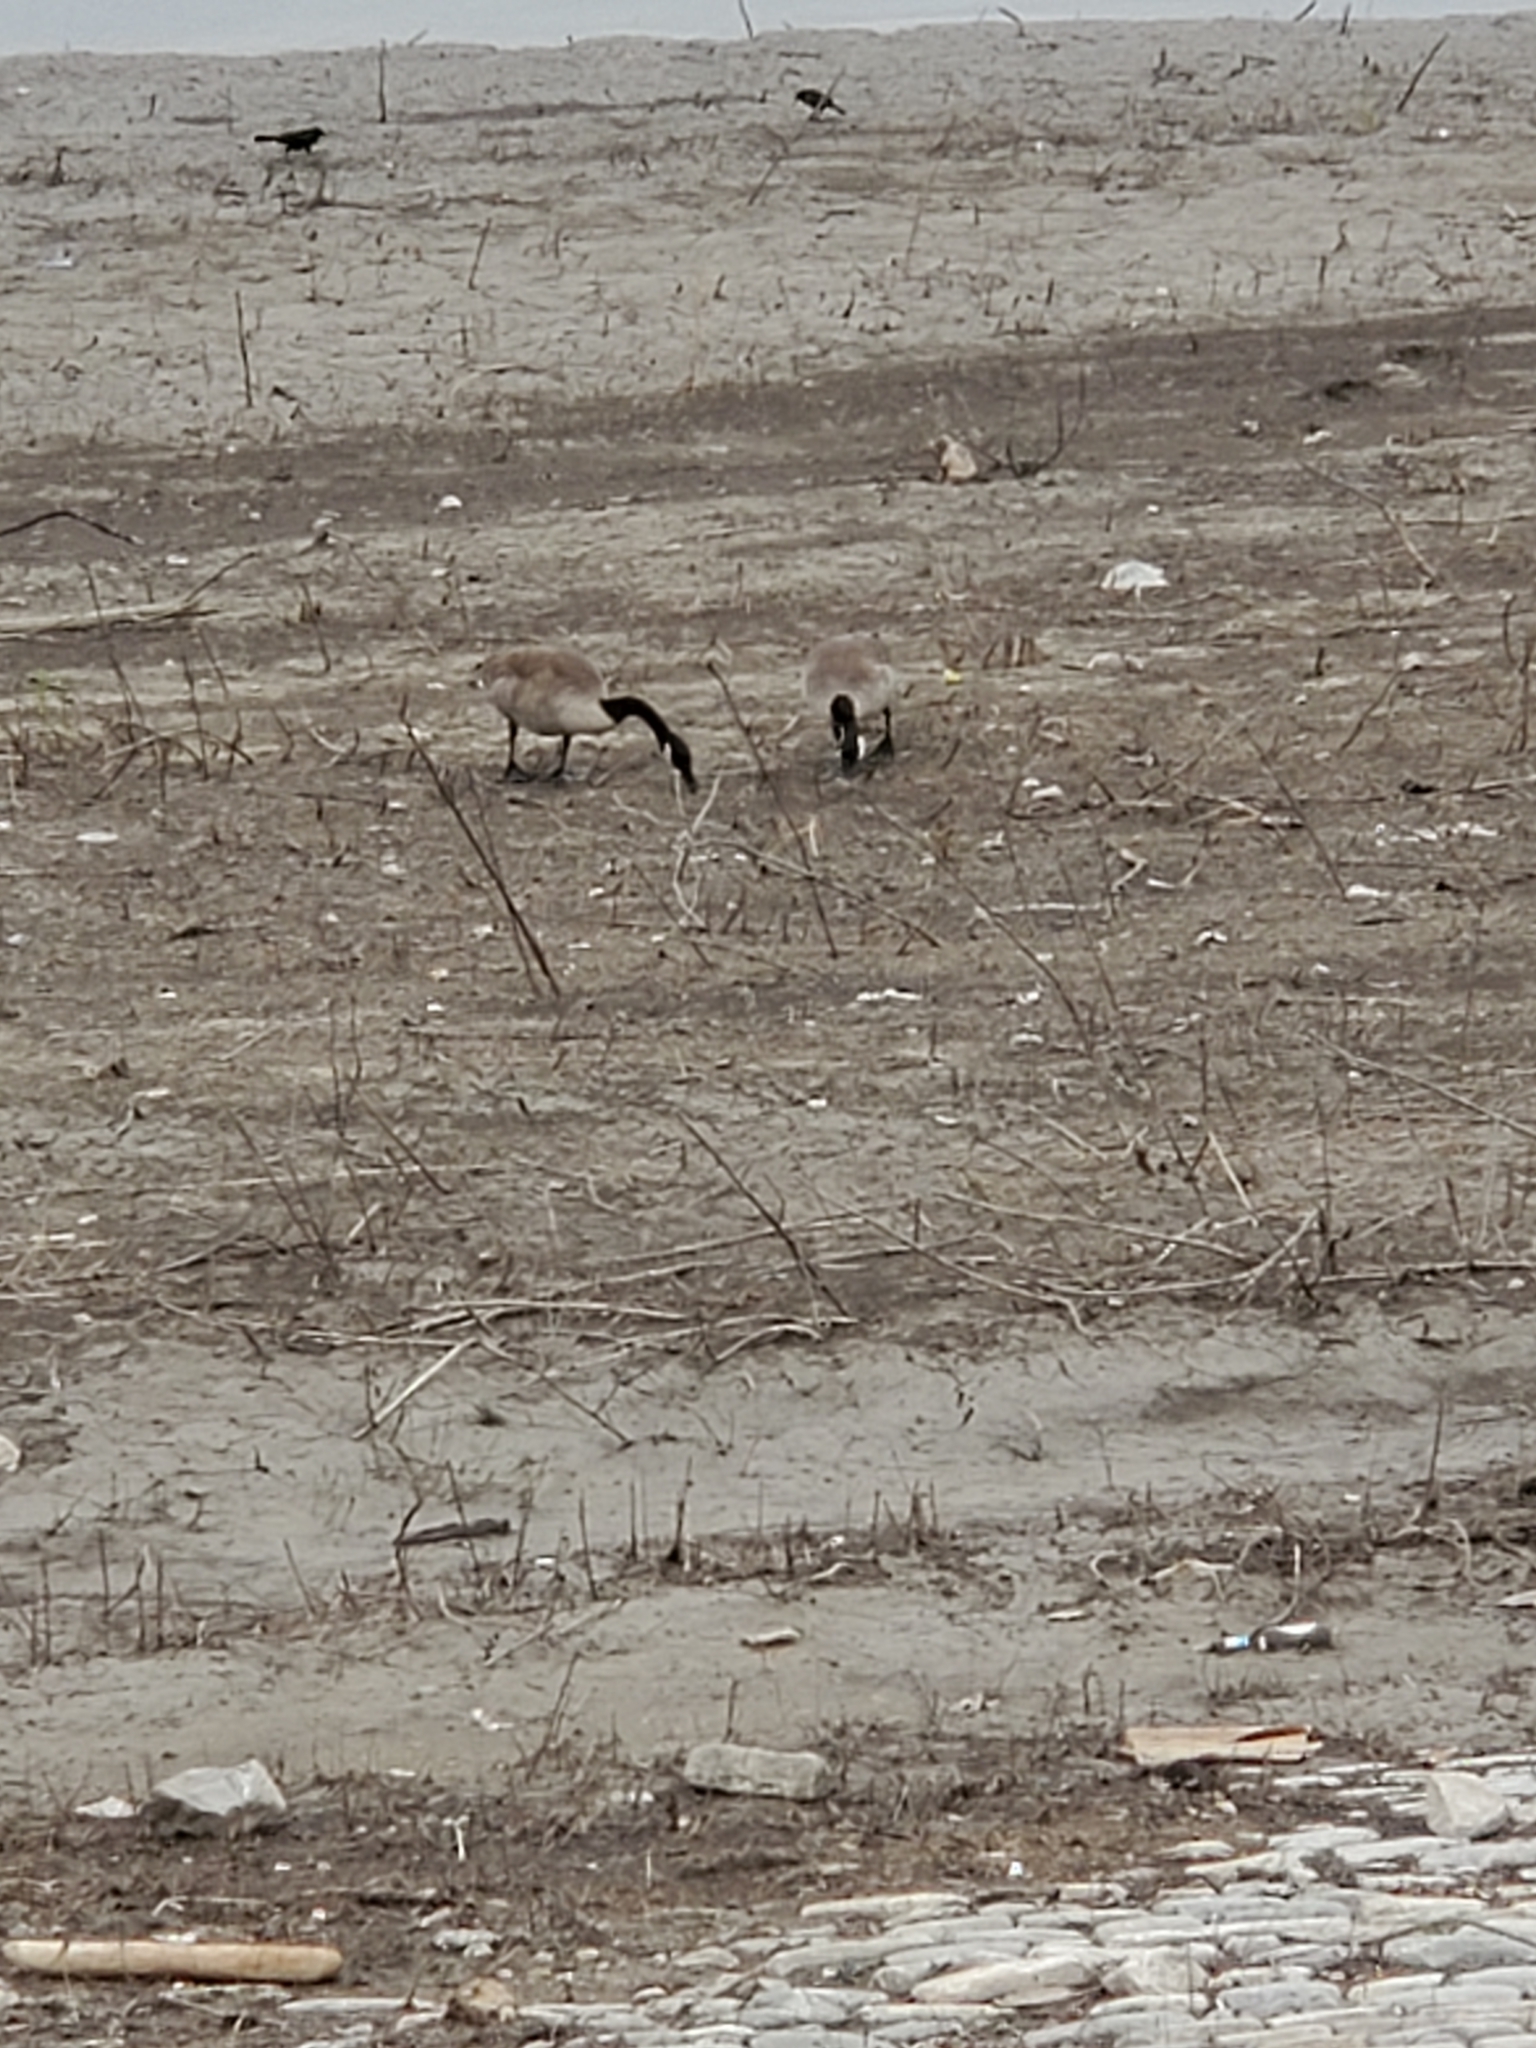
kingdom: Animalia
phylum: Chordata
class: Aves
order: Anseriformes
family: Anatidae
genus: Branta
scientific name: Branta canadensis
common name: Canada goose
